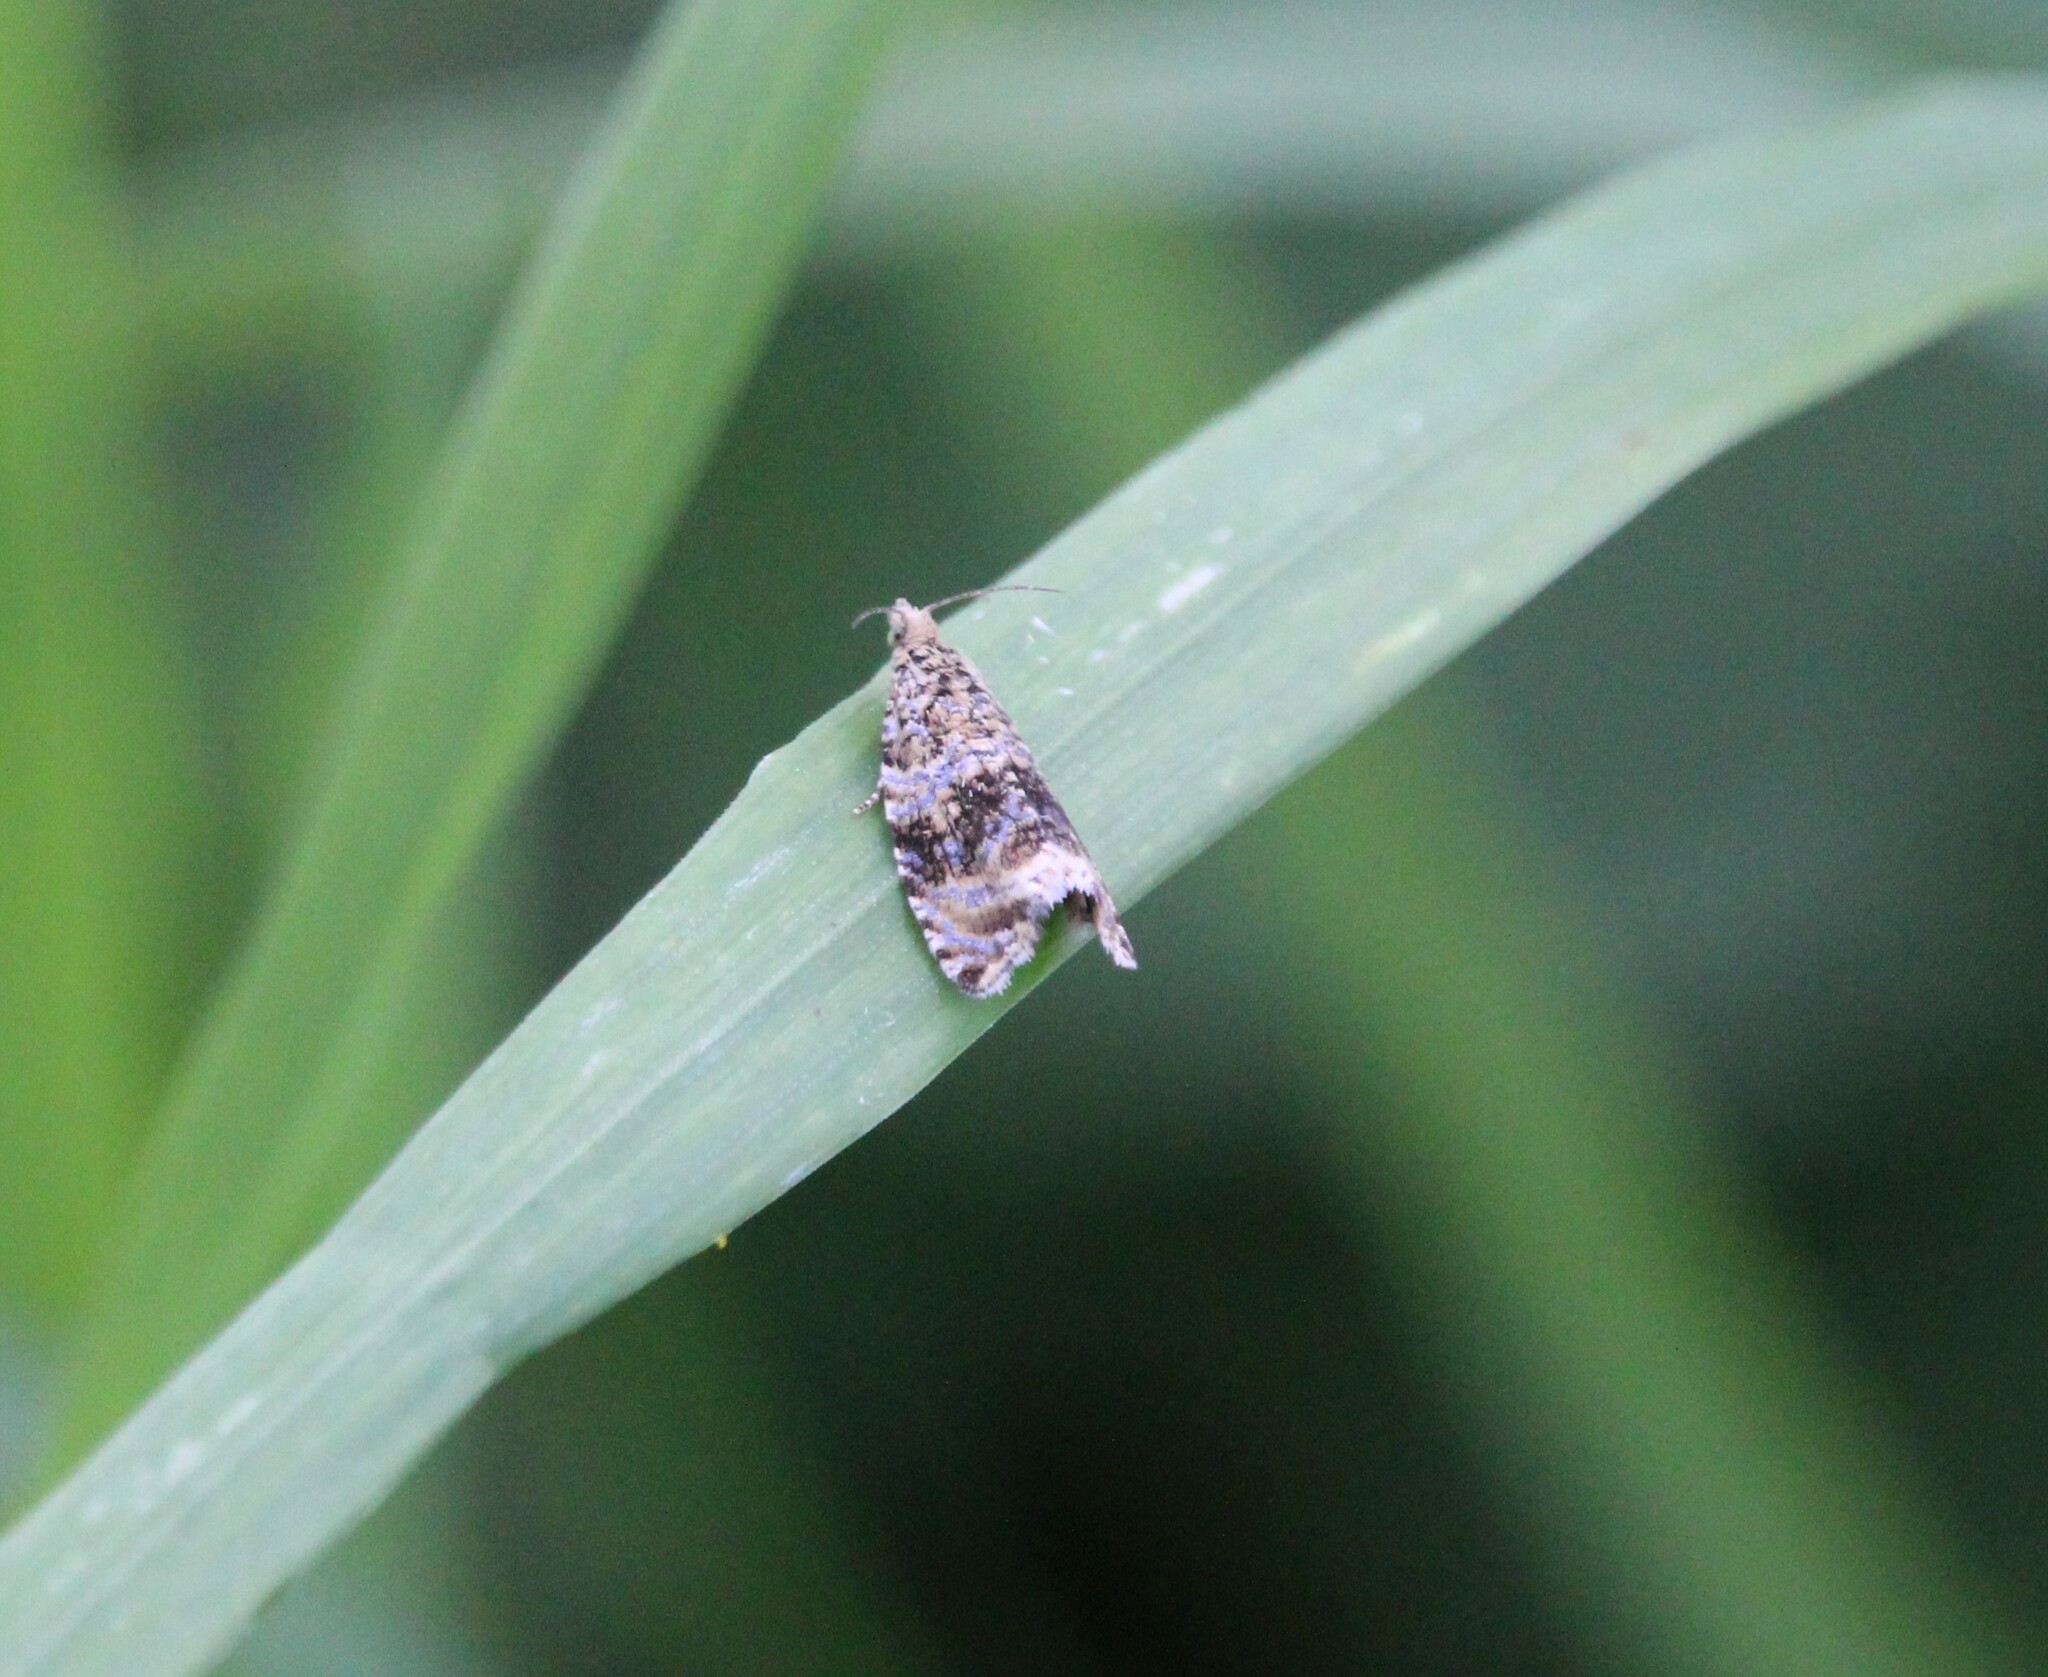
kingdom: Animalia
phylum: Arthropoda
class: Insecta
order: Lepidoptera
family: Tortricidae
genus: Syricoris
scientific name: Syricoris lacunana
